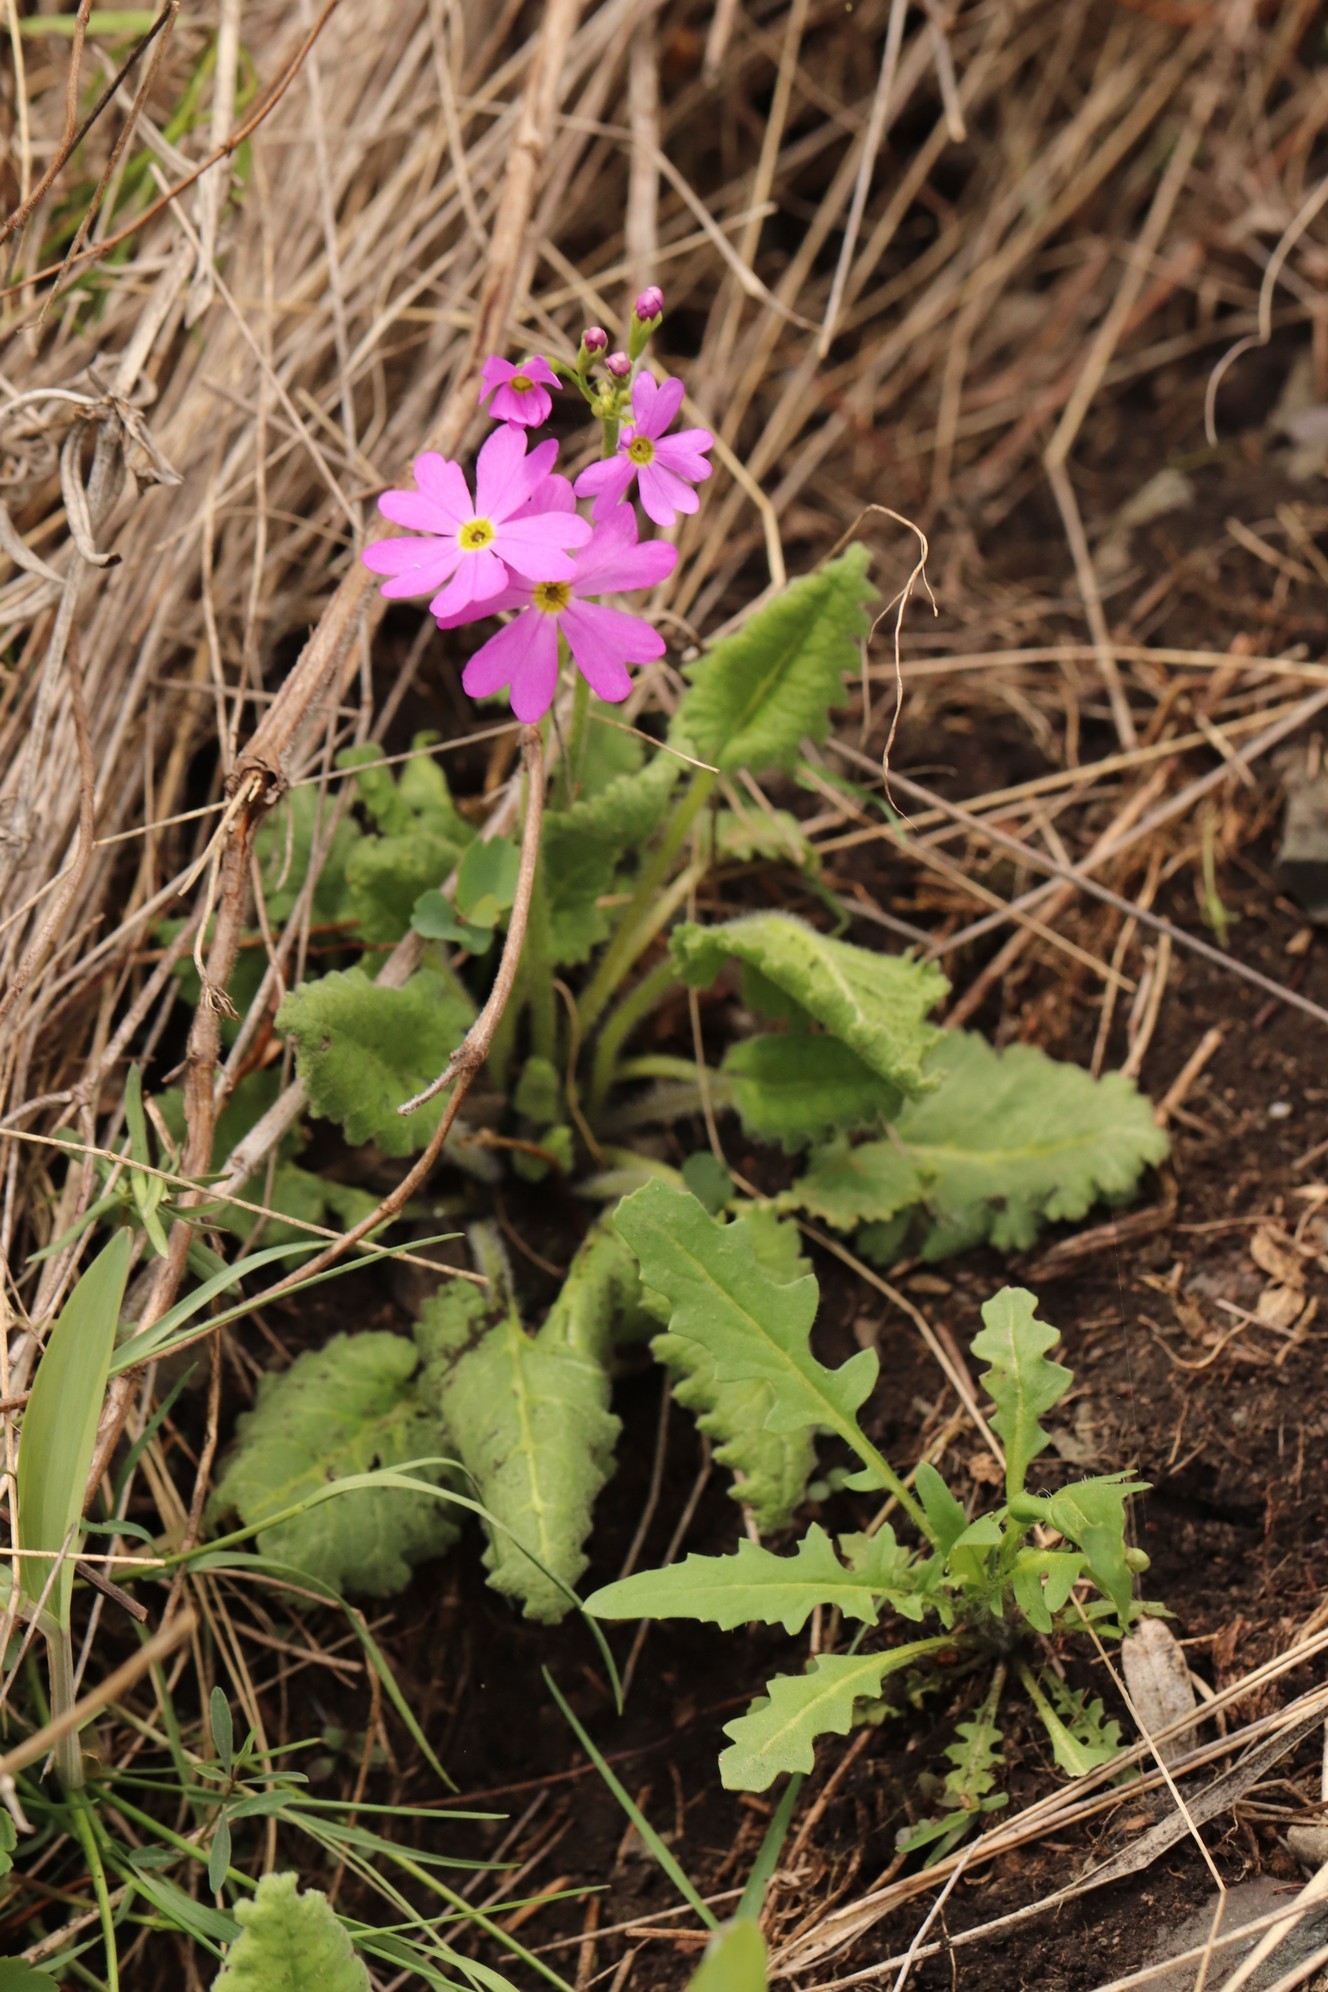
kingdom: Plantae
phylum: Tracheophyta
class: Magnoliopsida
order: Ericales
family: Primulaceae
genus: Primula
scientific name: Primula cortusoides
